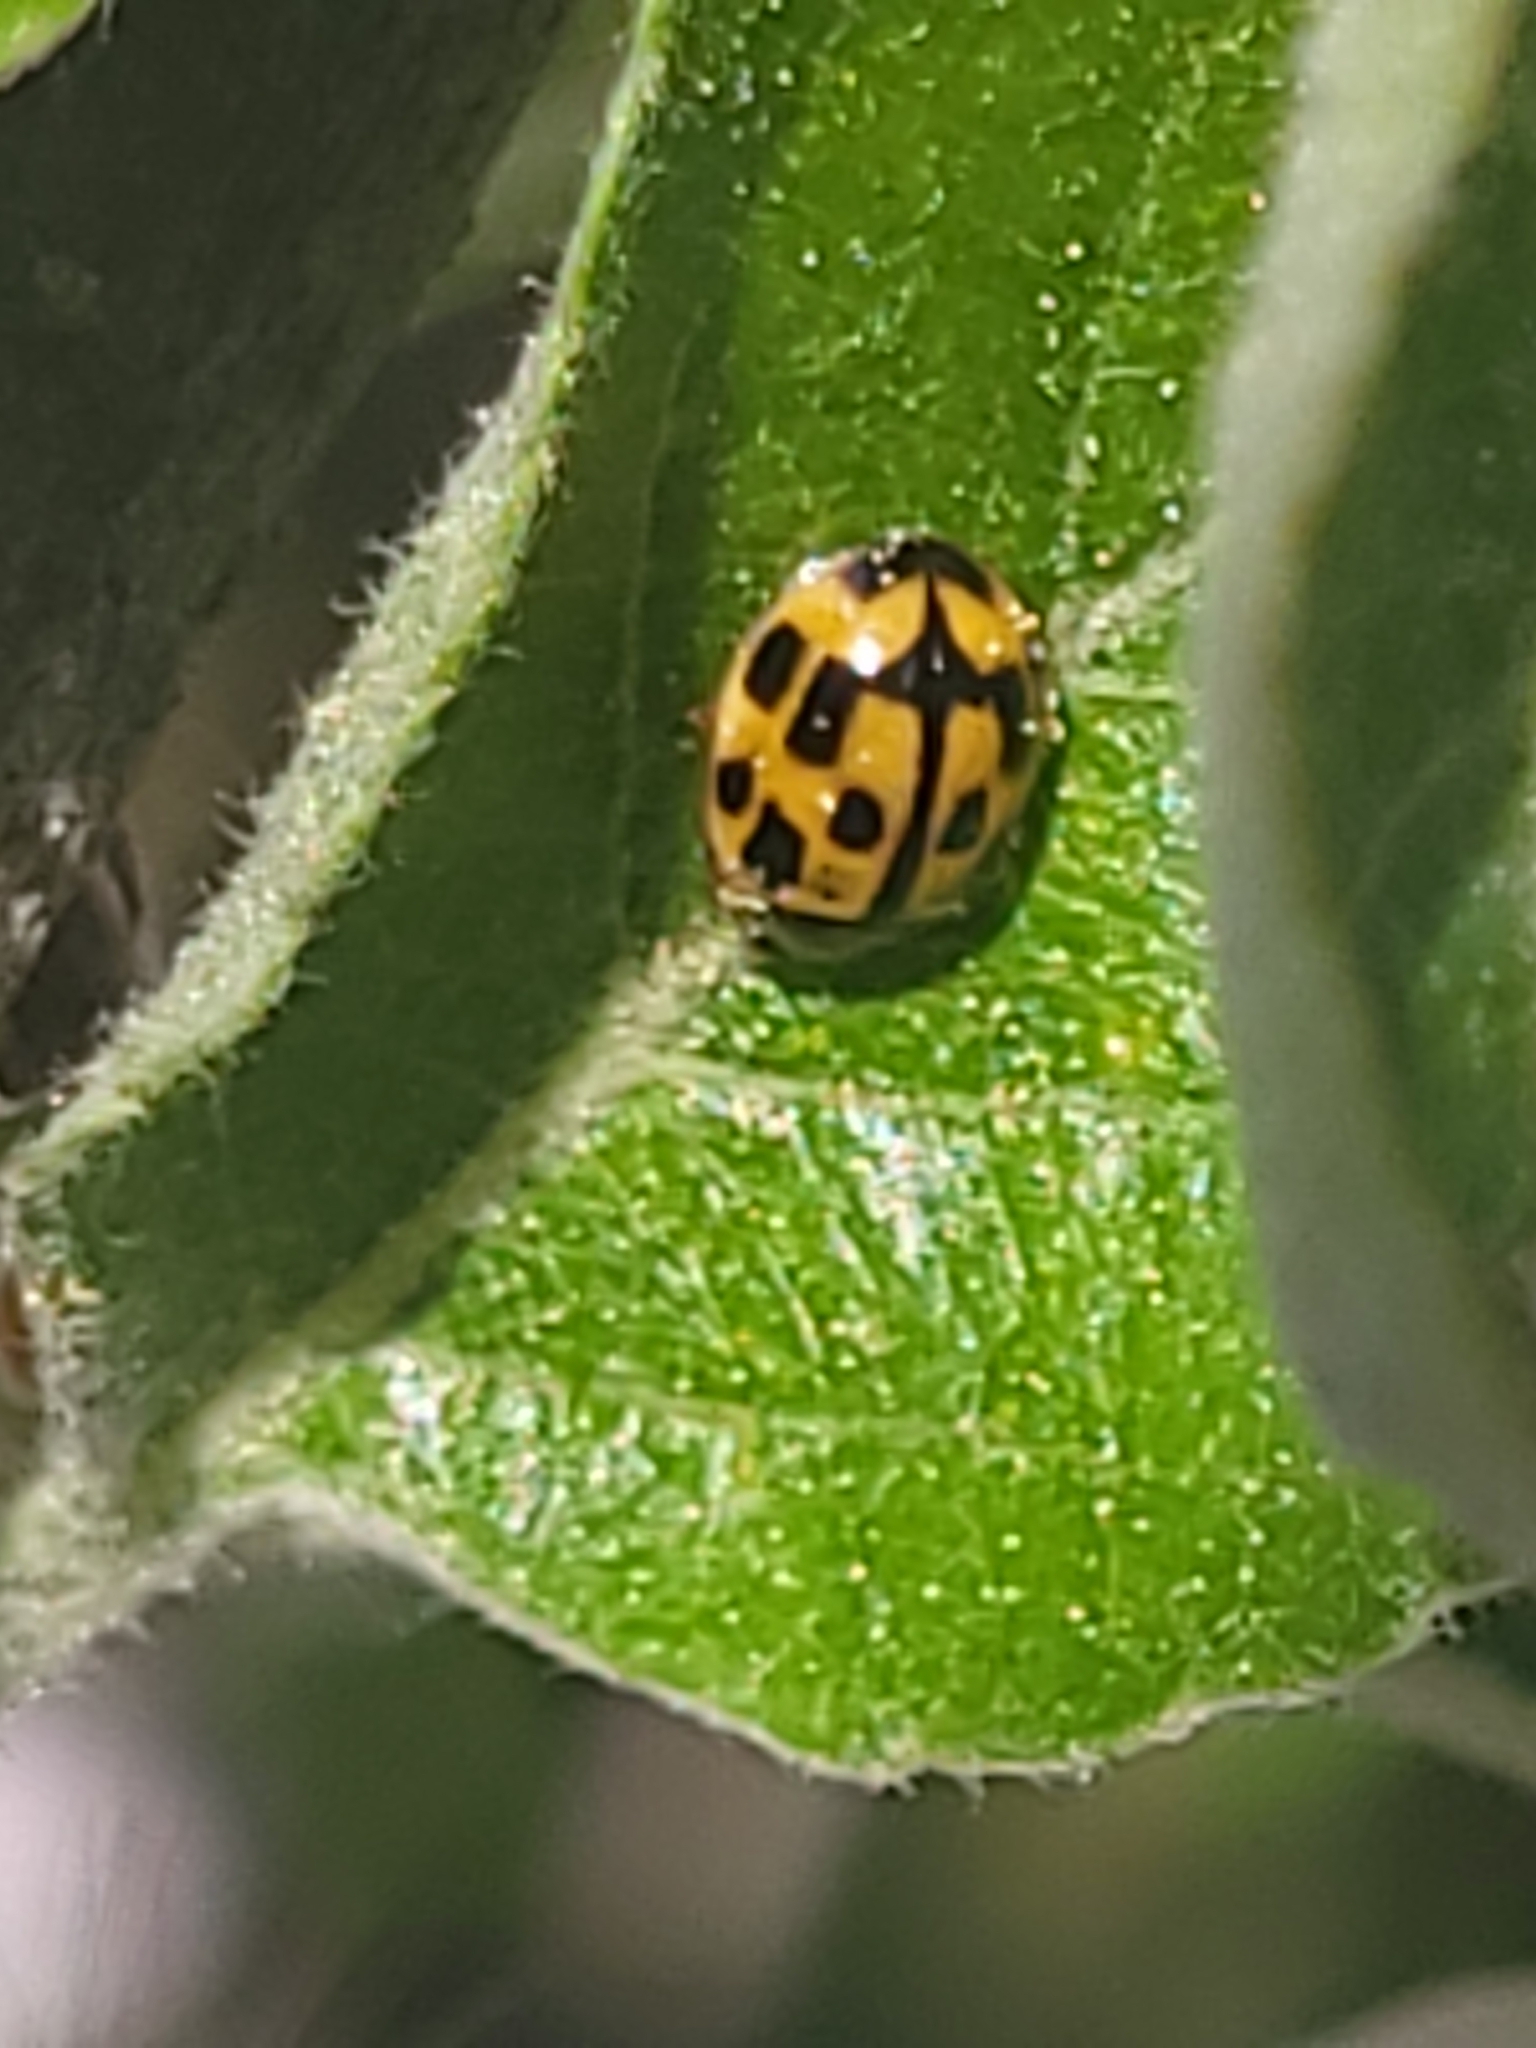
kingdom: Animalia
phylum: Arthropoda
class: Insecta
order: Coleoptera
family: Coccinellidae
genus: Propylaea
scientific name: Propylaea quatuordecimpunctata
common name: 14-spotted ladybird beetle
